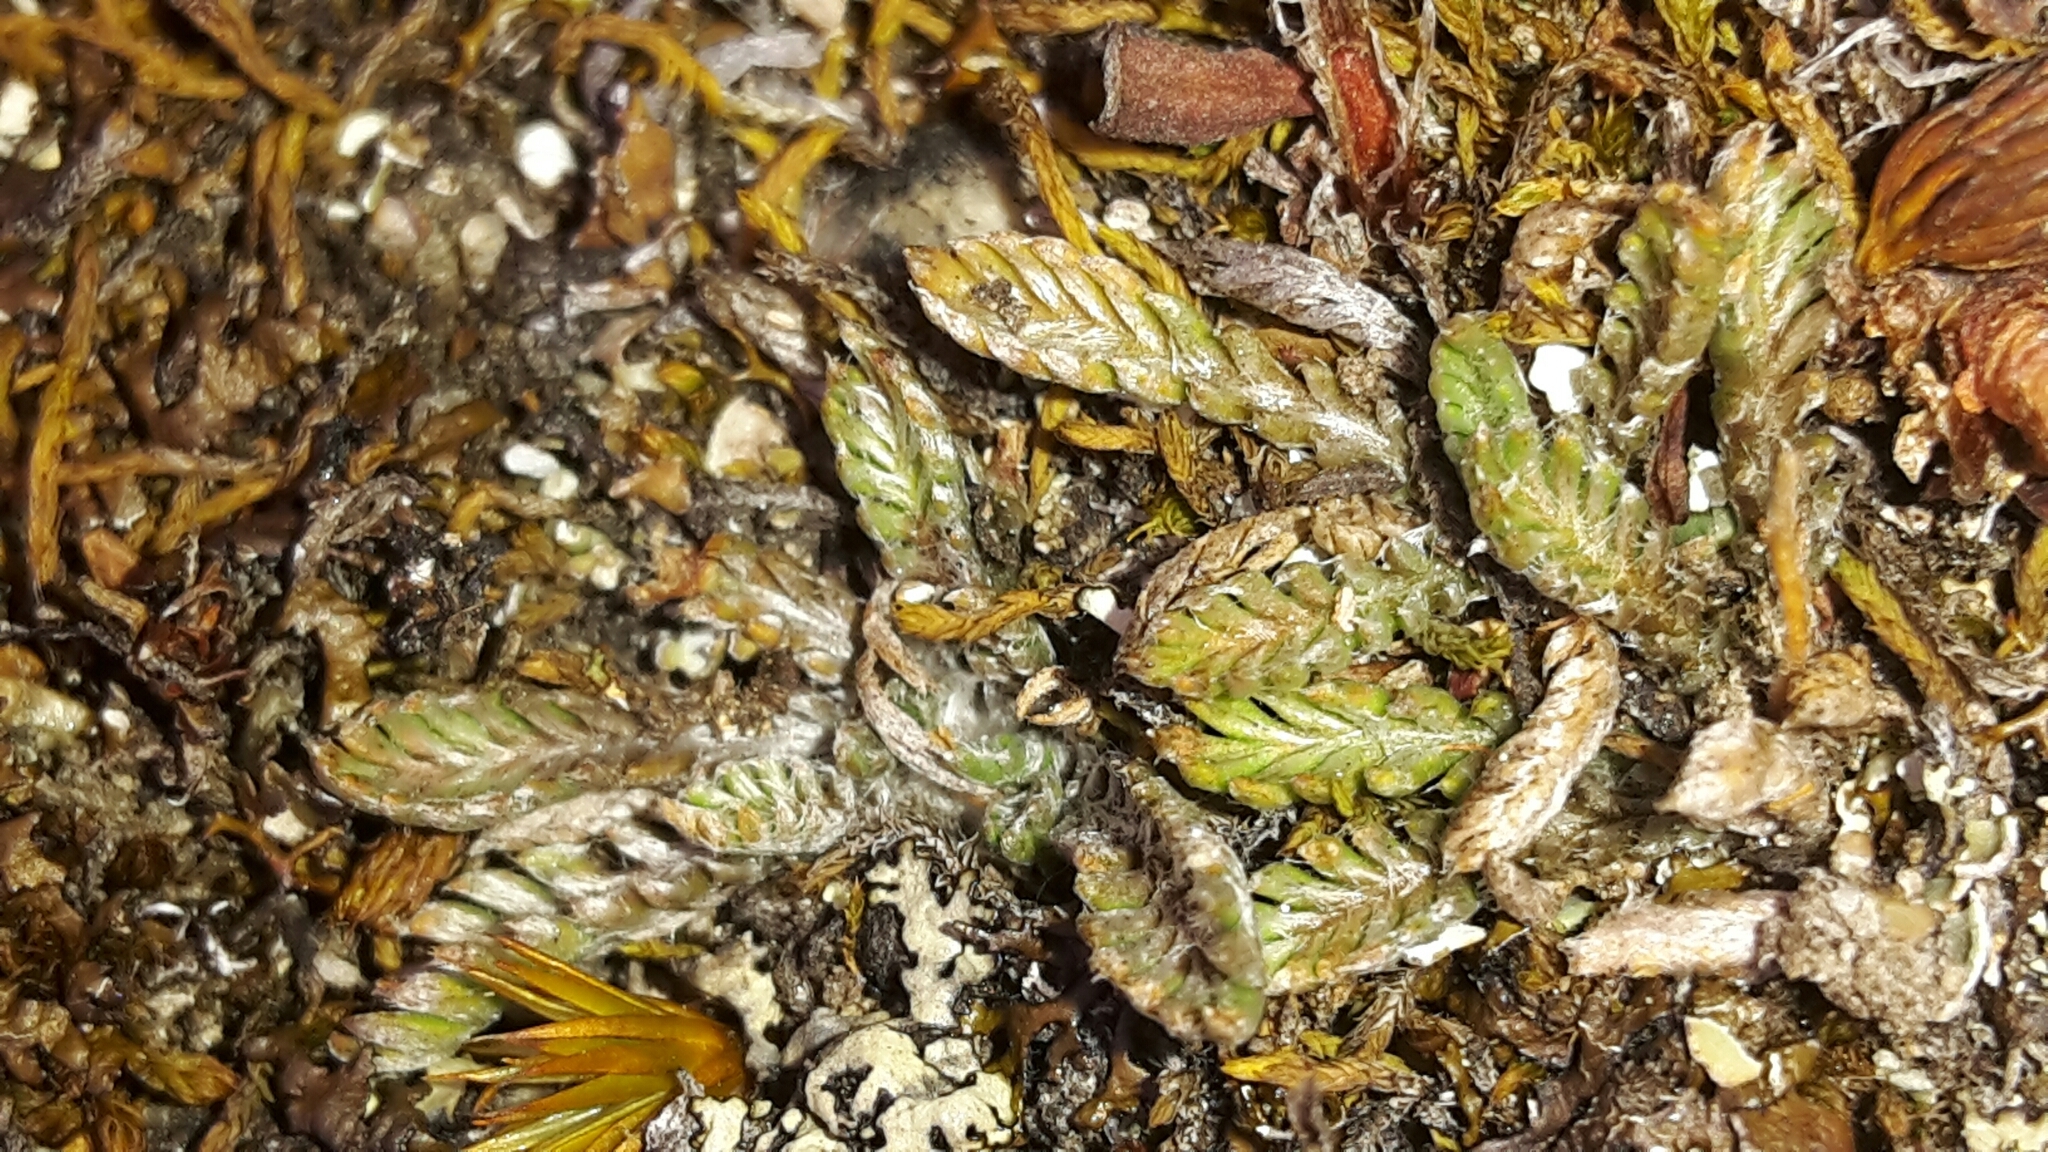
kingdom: Plantae
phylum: Tracheophyta
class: Magnoliopsida
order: Asterales
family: Asteraceae
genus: Leptinella
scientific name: Leptinella conjuncta
